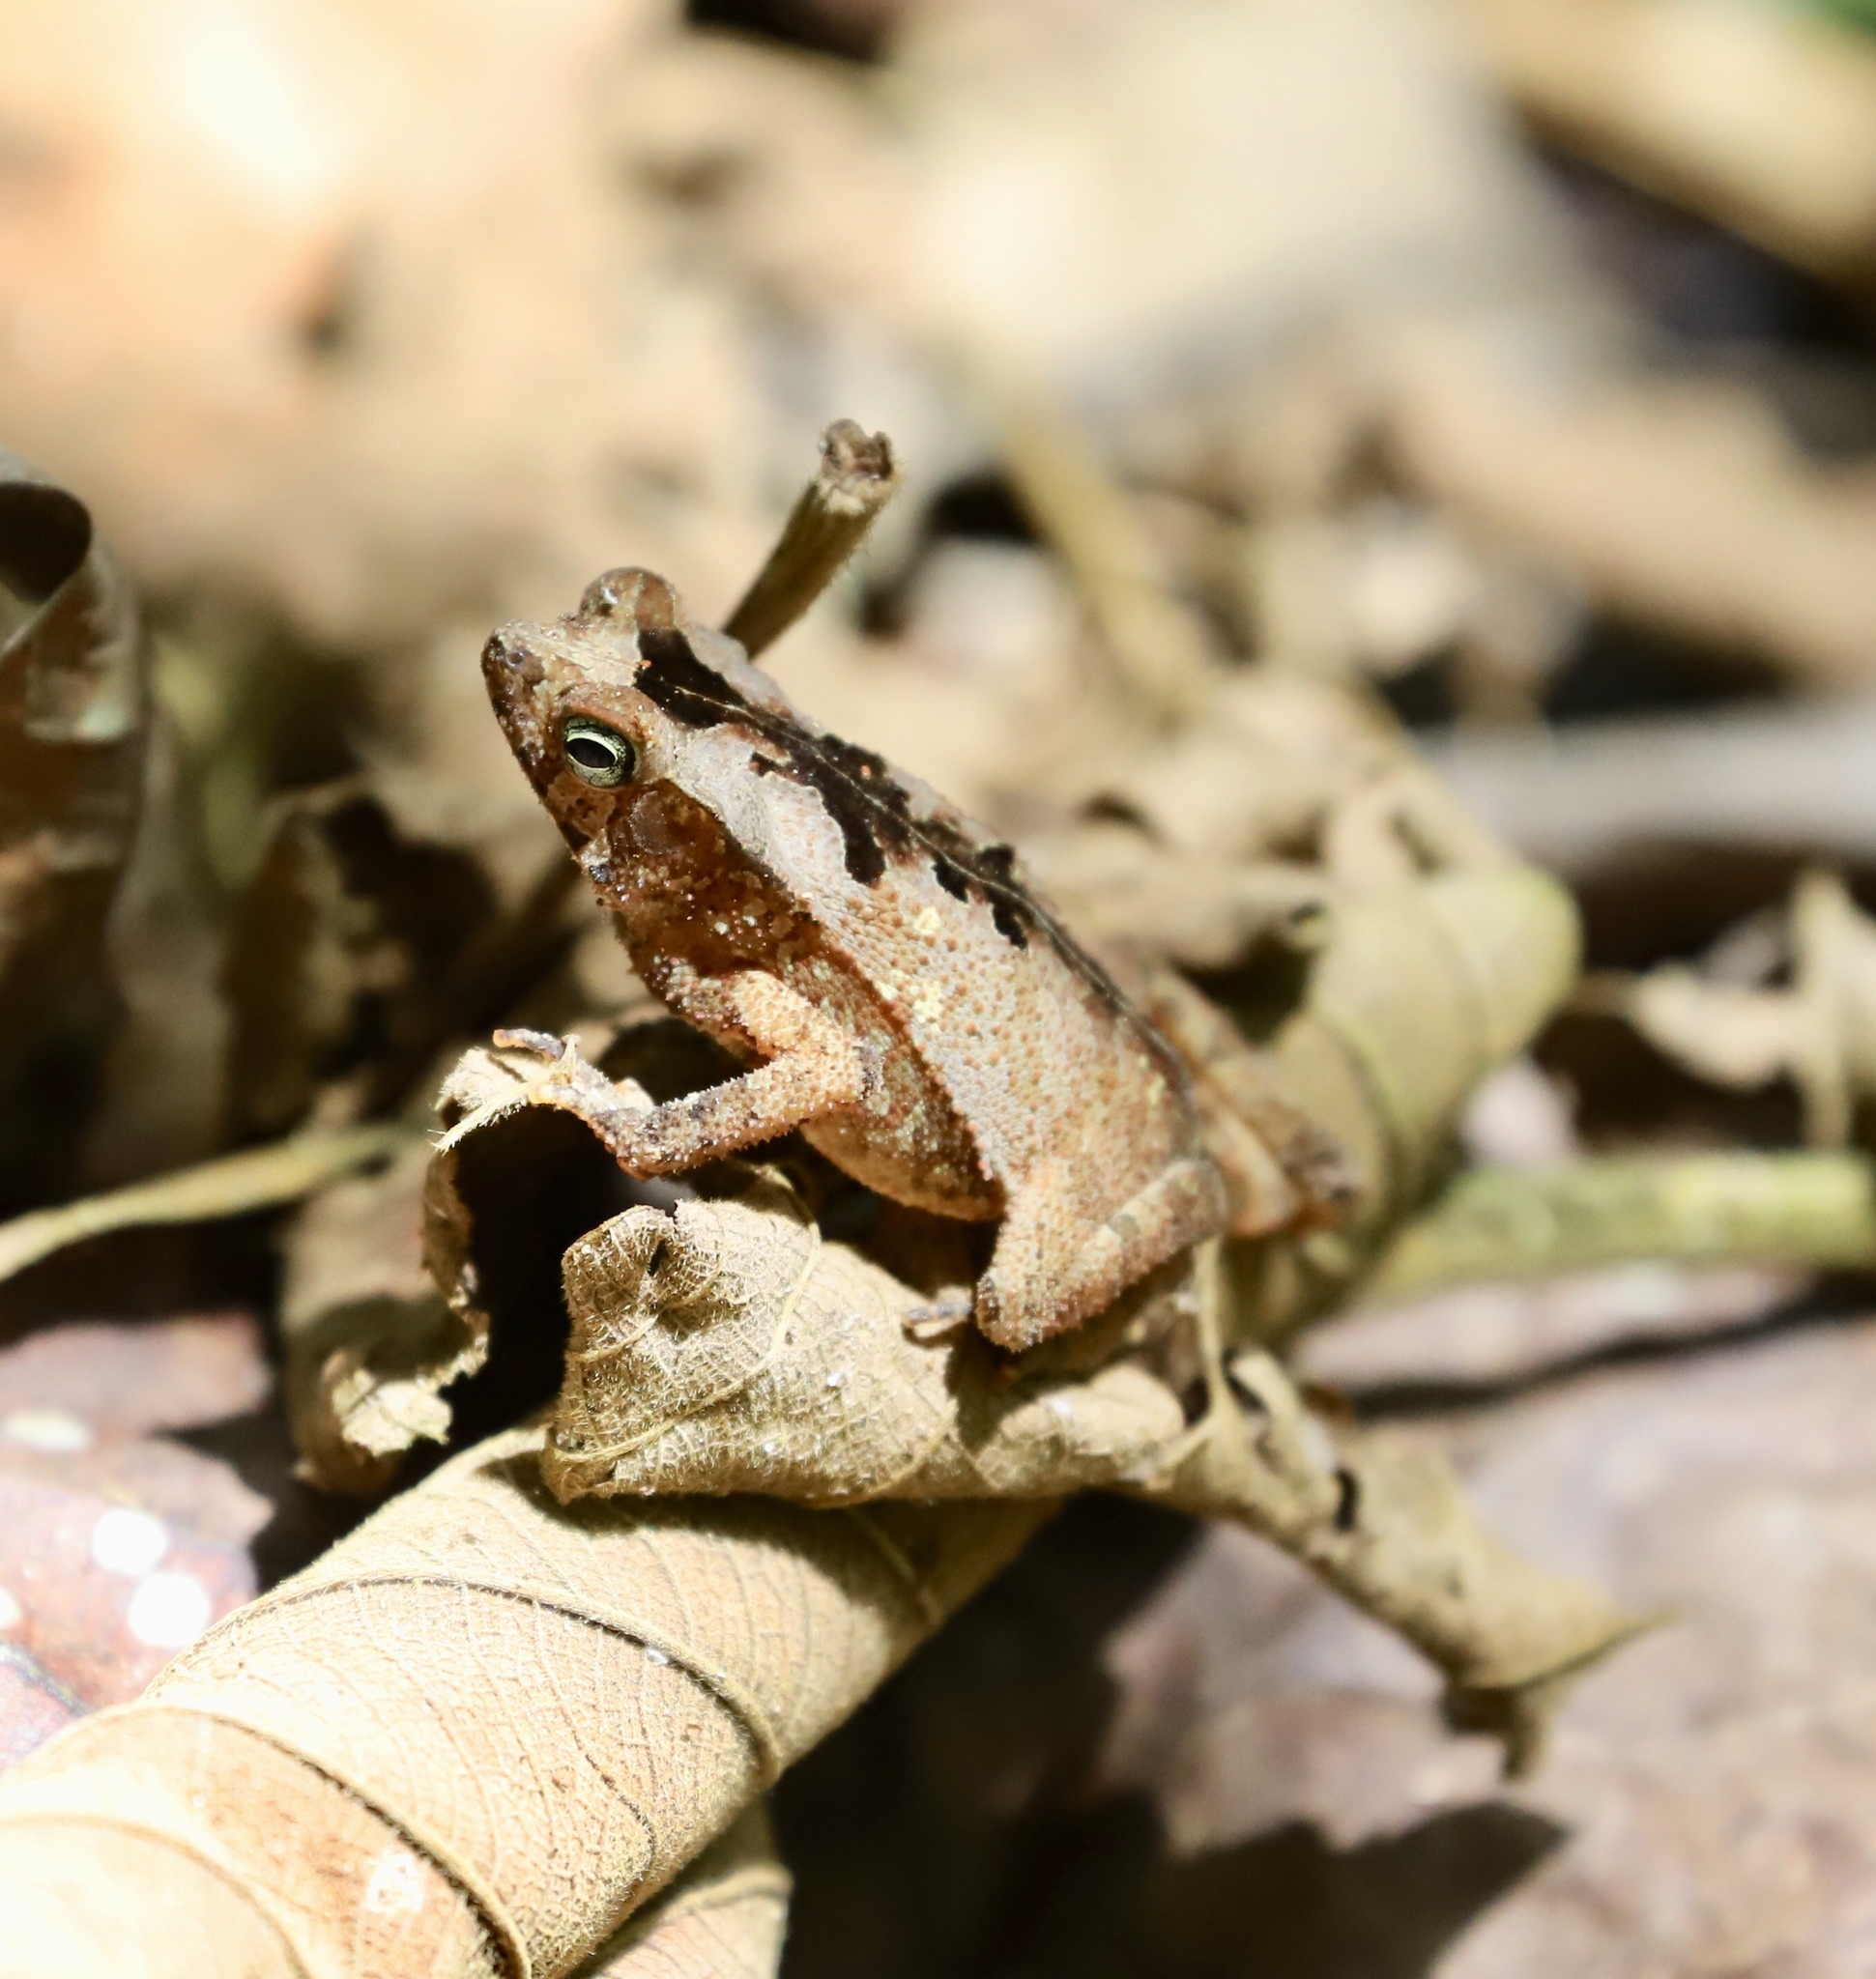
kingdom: Animalia
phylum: Chordata
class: Amphibia
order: Anura
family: Bufonidae
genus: Rhinella
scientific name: Rhinella alata
